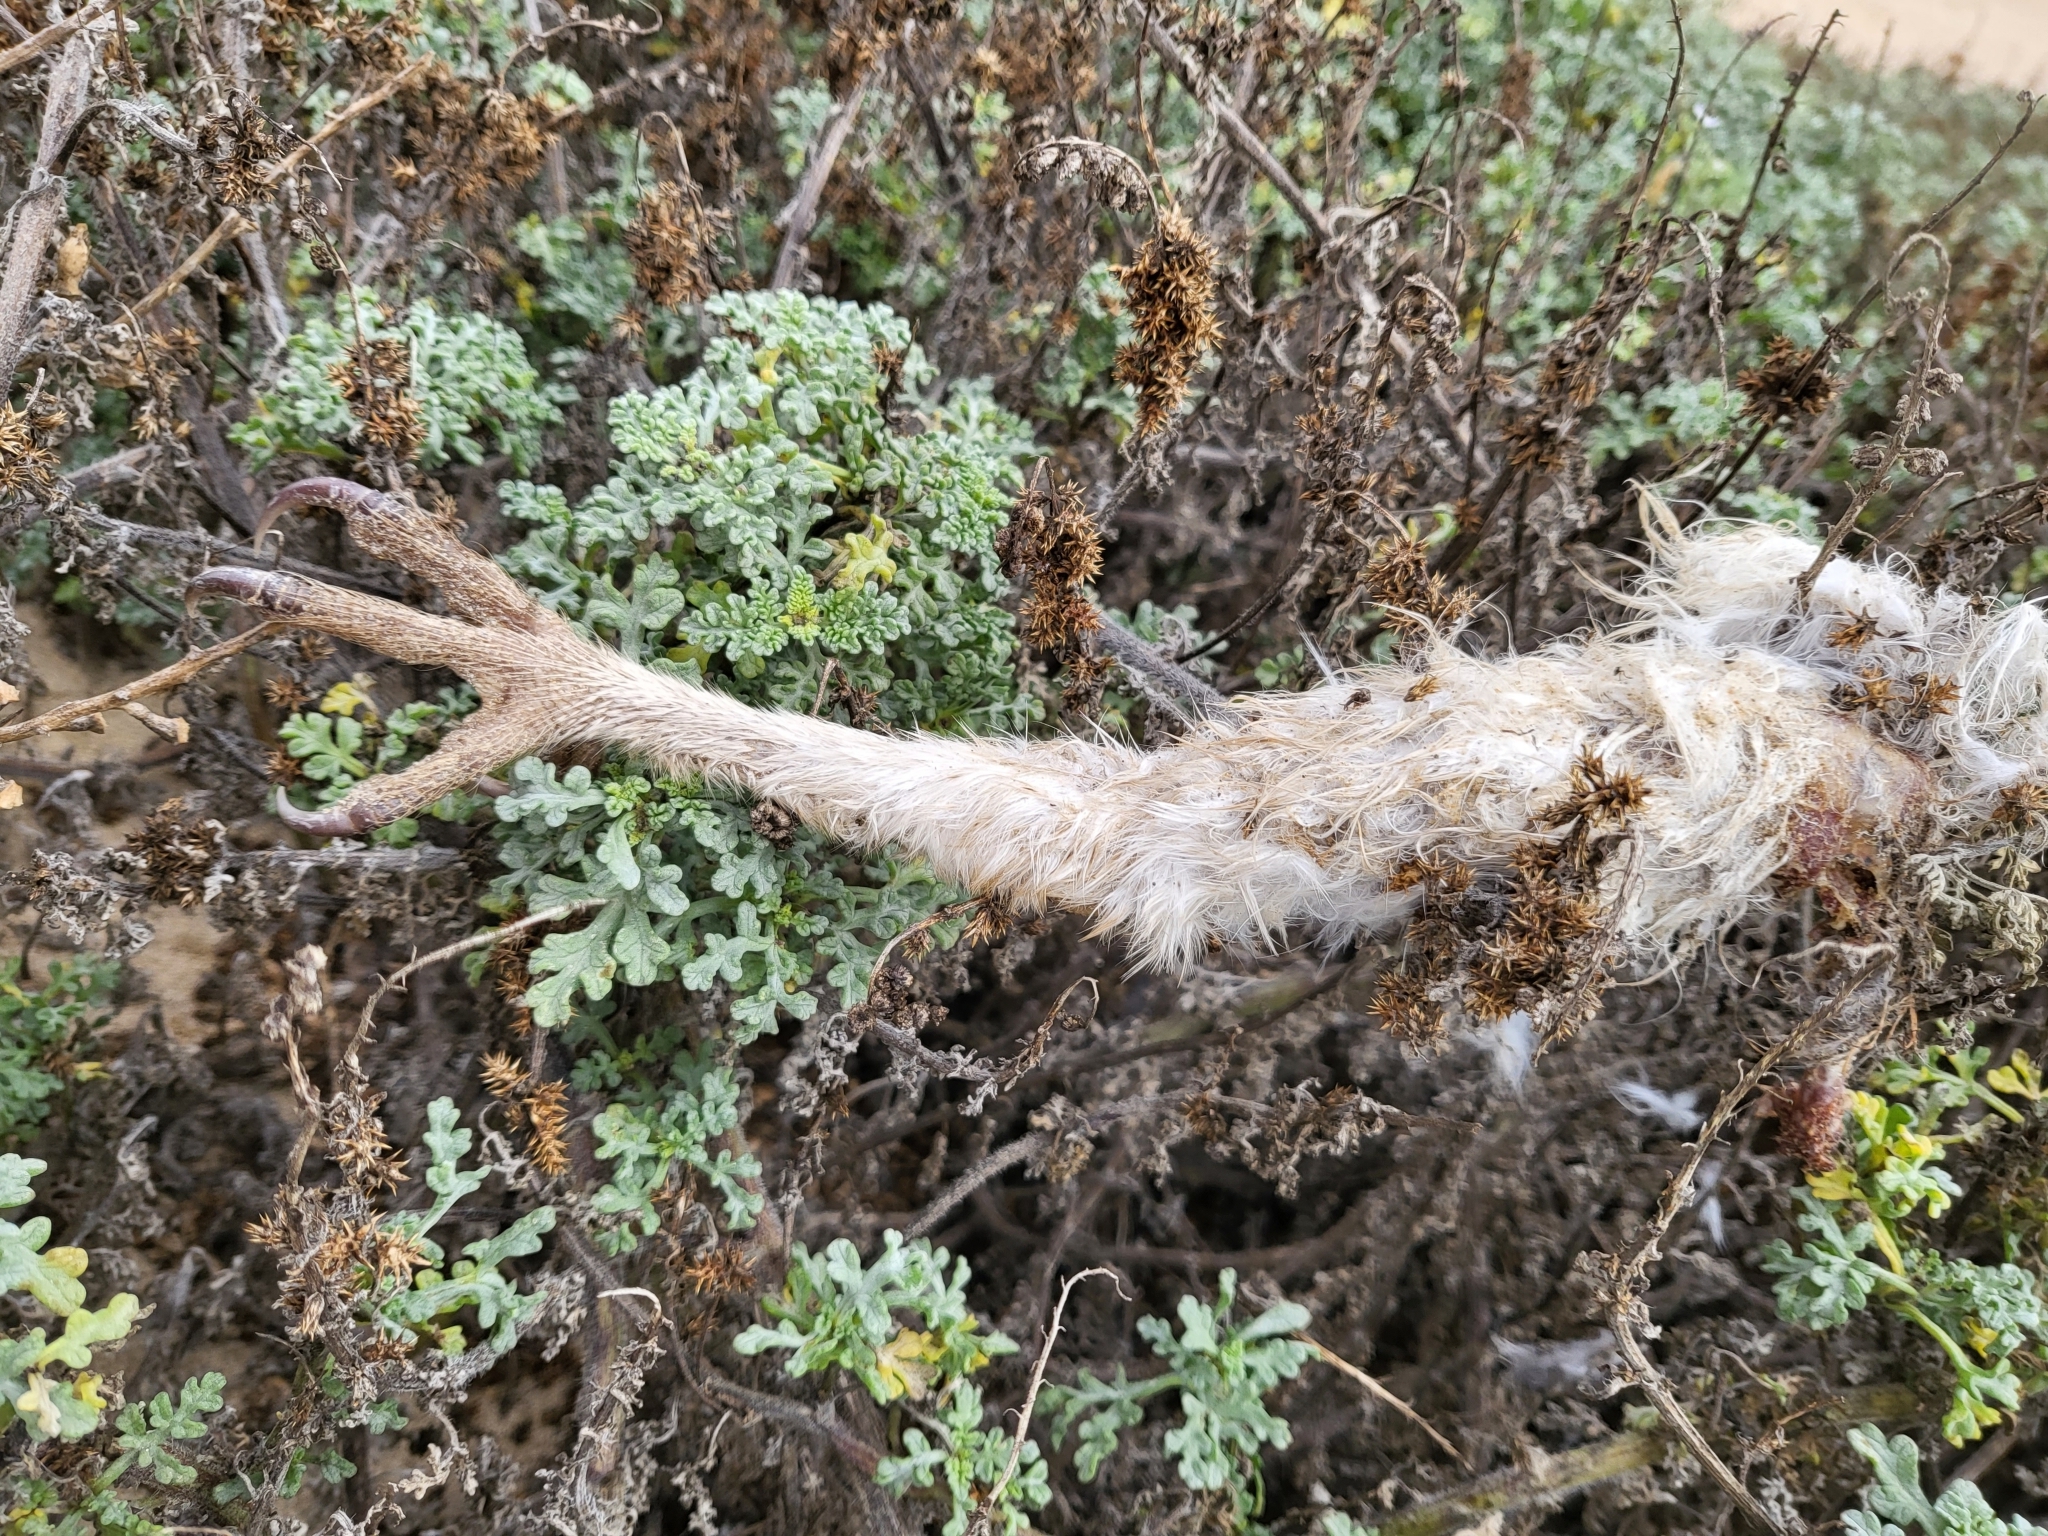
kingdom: Animalia
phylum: Chordata
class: Aves
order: Strigiformes
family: Tytonidae
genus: Tyto
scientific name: Tyto alba
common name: Barn owl
